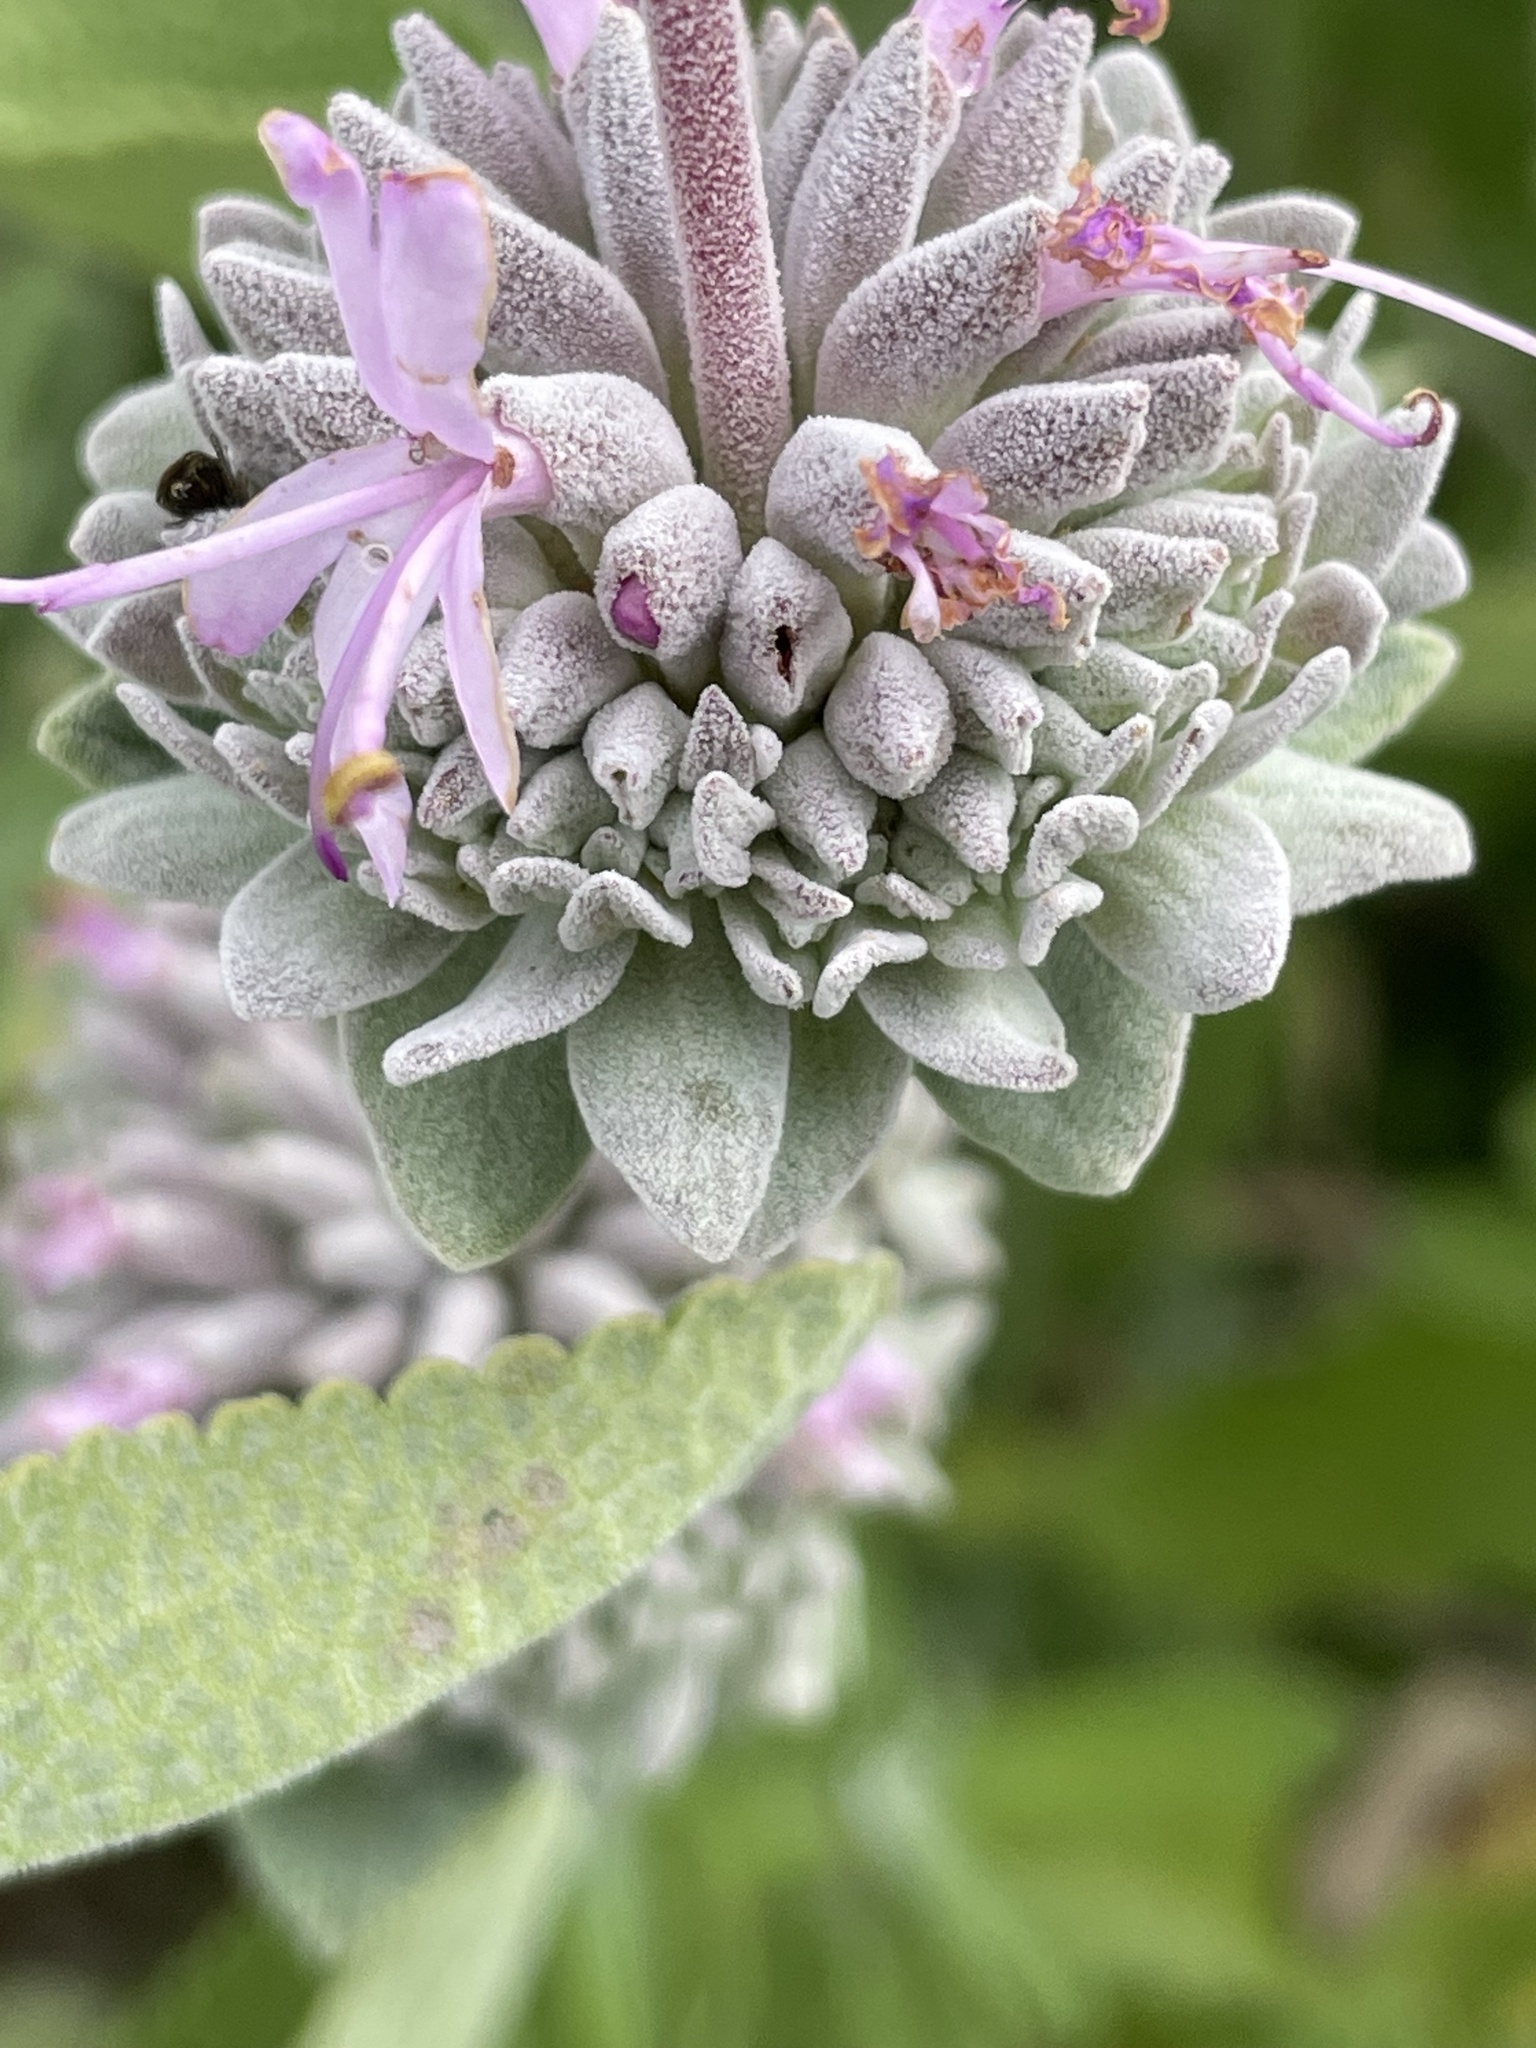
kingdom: Plantae
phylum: Tracheophyta
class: Magnoliopsida
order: Lamiales
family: Lamiaceae
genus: Salvia
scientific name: Salvia leucophylla
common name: Purple sage
